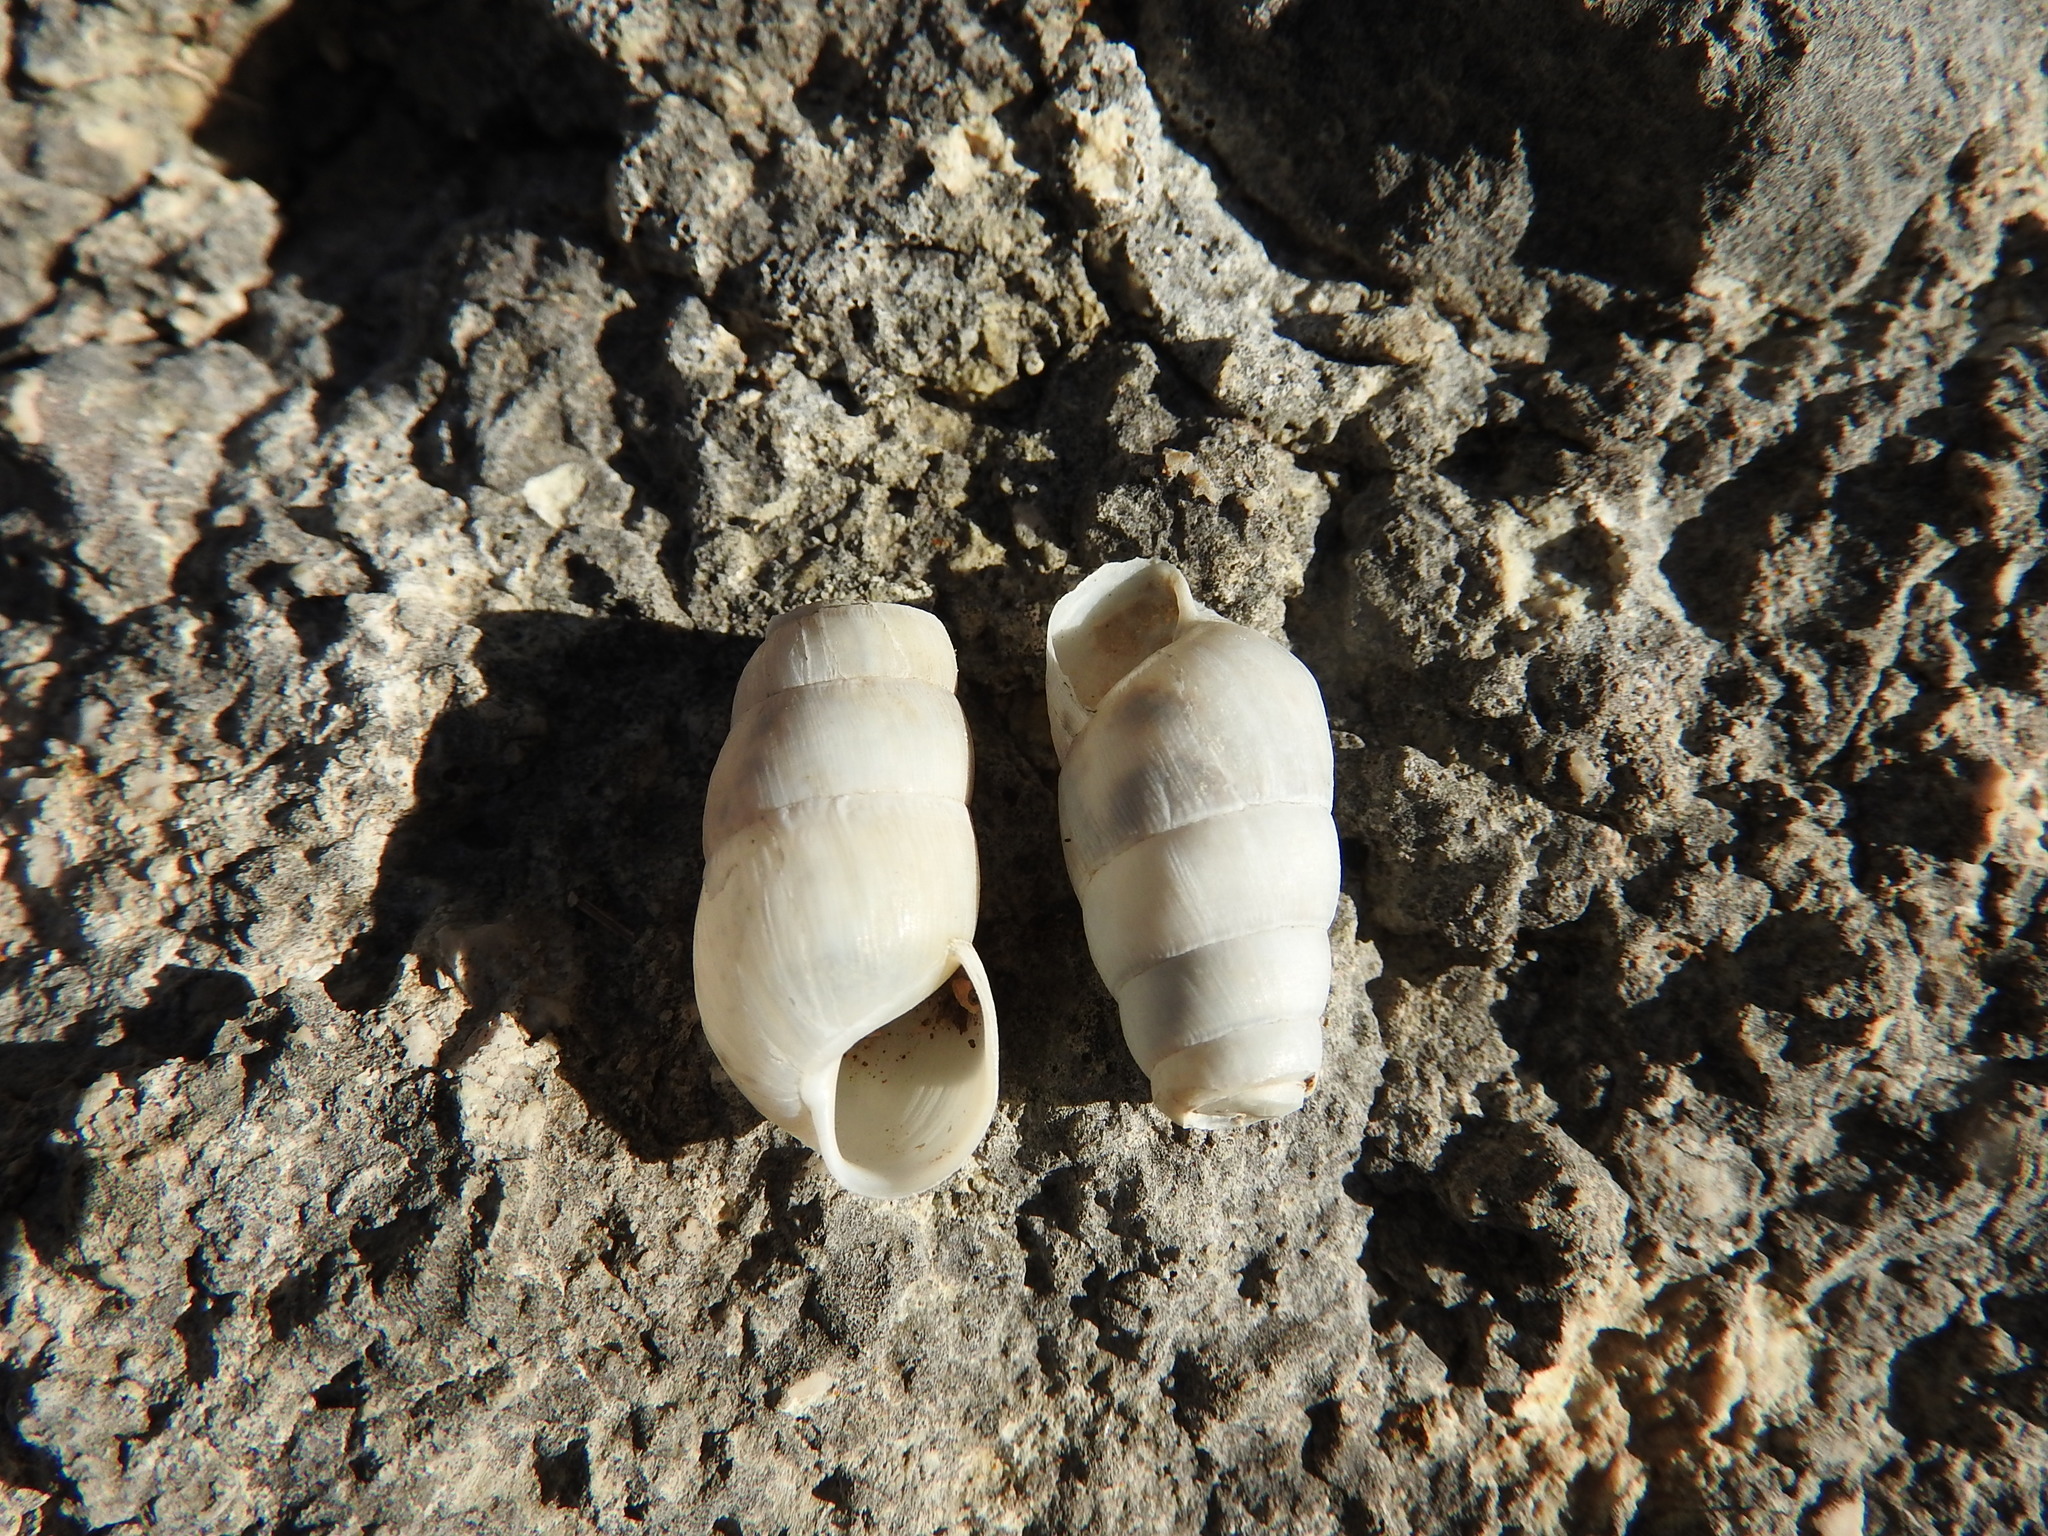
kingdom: Animalia
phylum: Mollusca
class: Gastropoda
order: Stylommatophora
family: Achatinidae
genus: Rumina
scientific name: Rumina decollata
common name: Decollate snail
